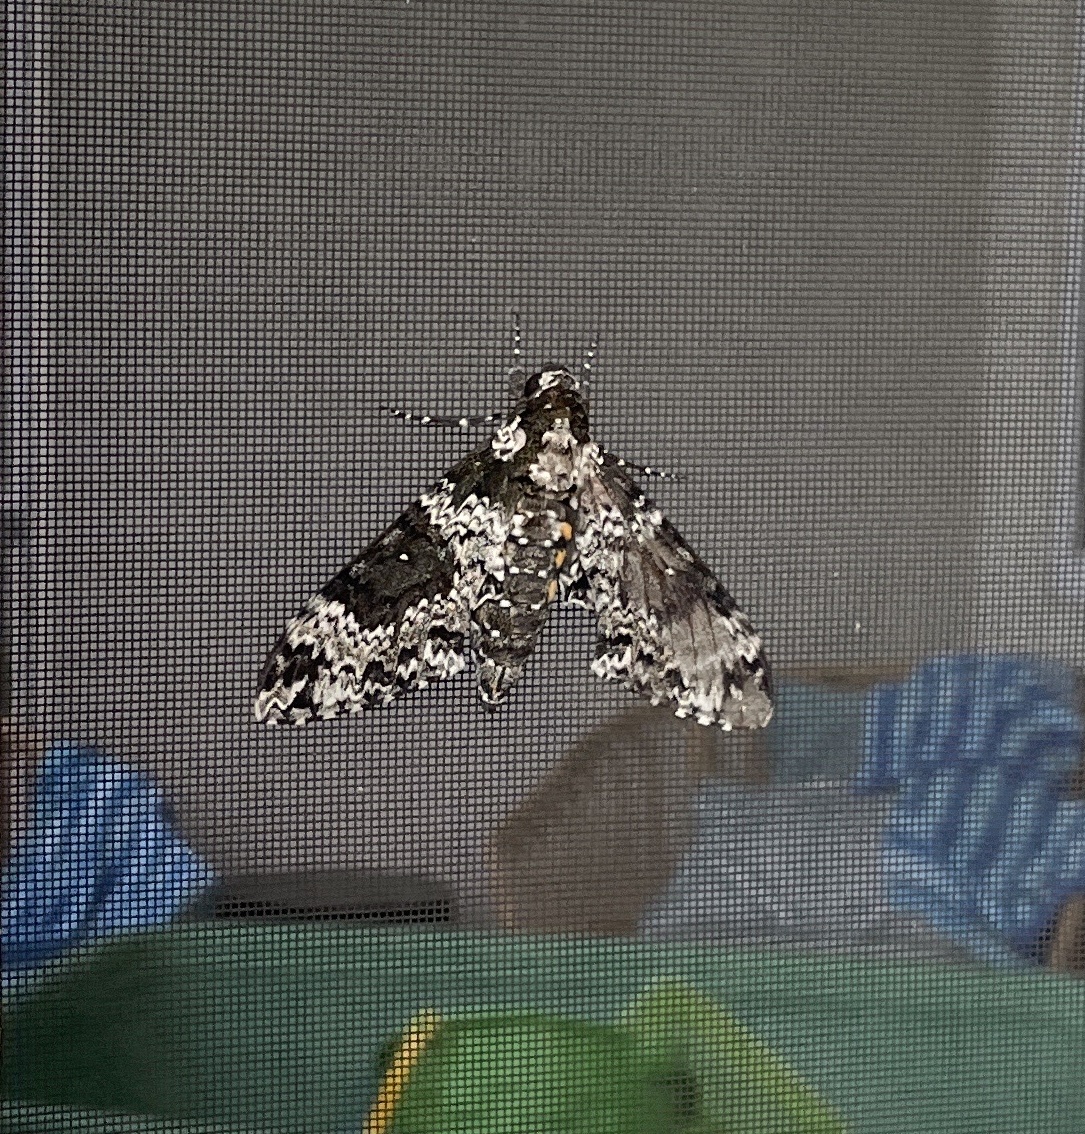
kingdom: Animalia
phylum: Arthropoda
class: Insecta
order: Lepidoptera
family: Sphingidae
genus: Manduca
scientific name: Manduca rustica
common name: Rustic sphinx
